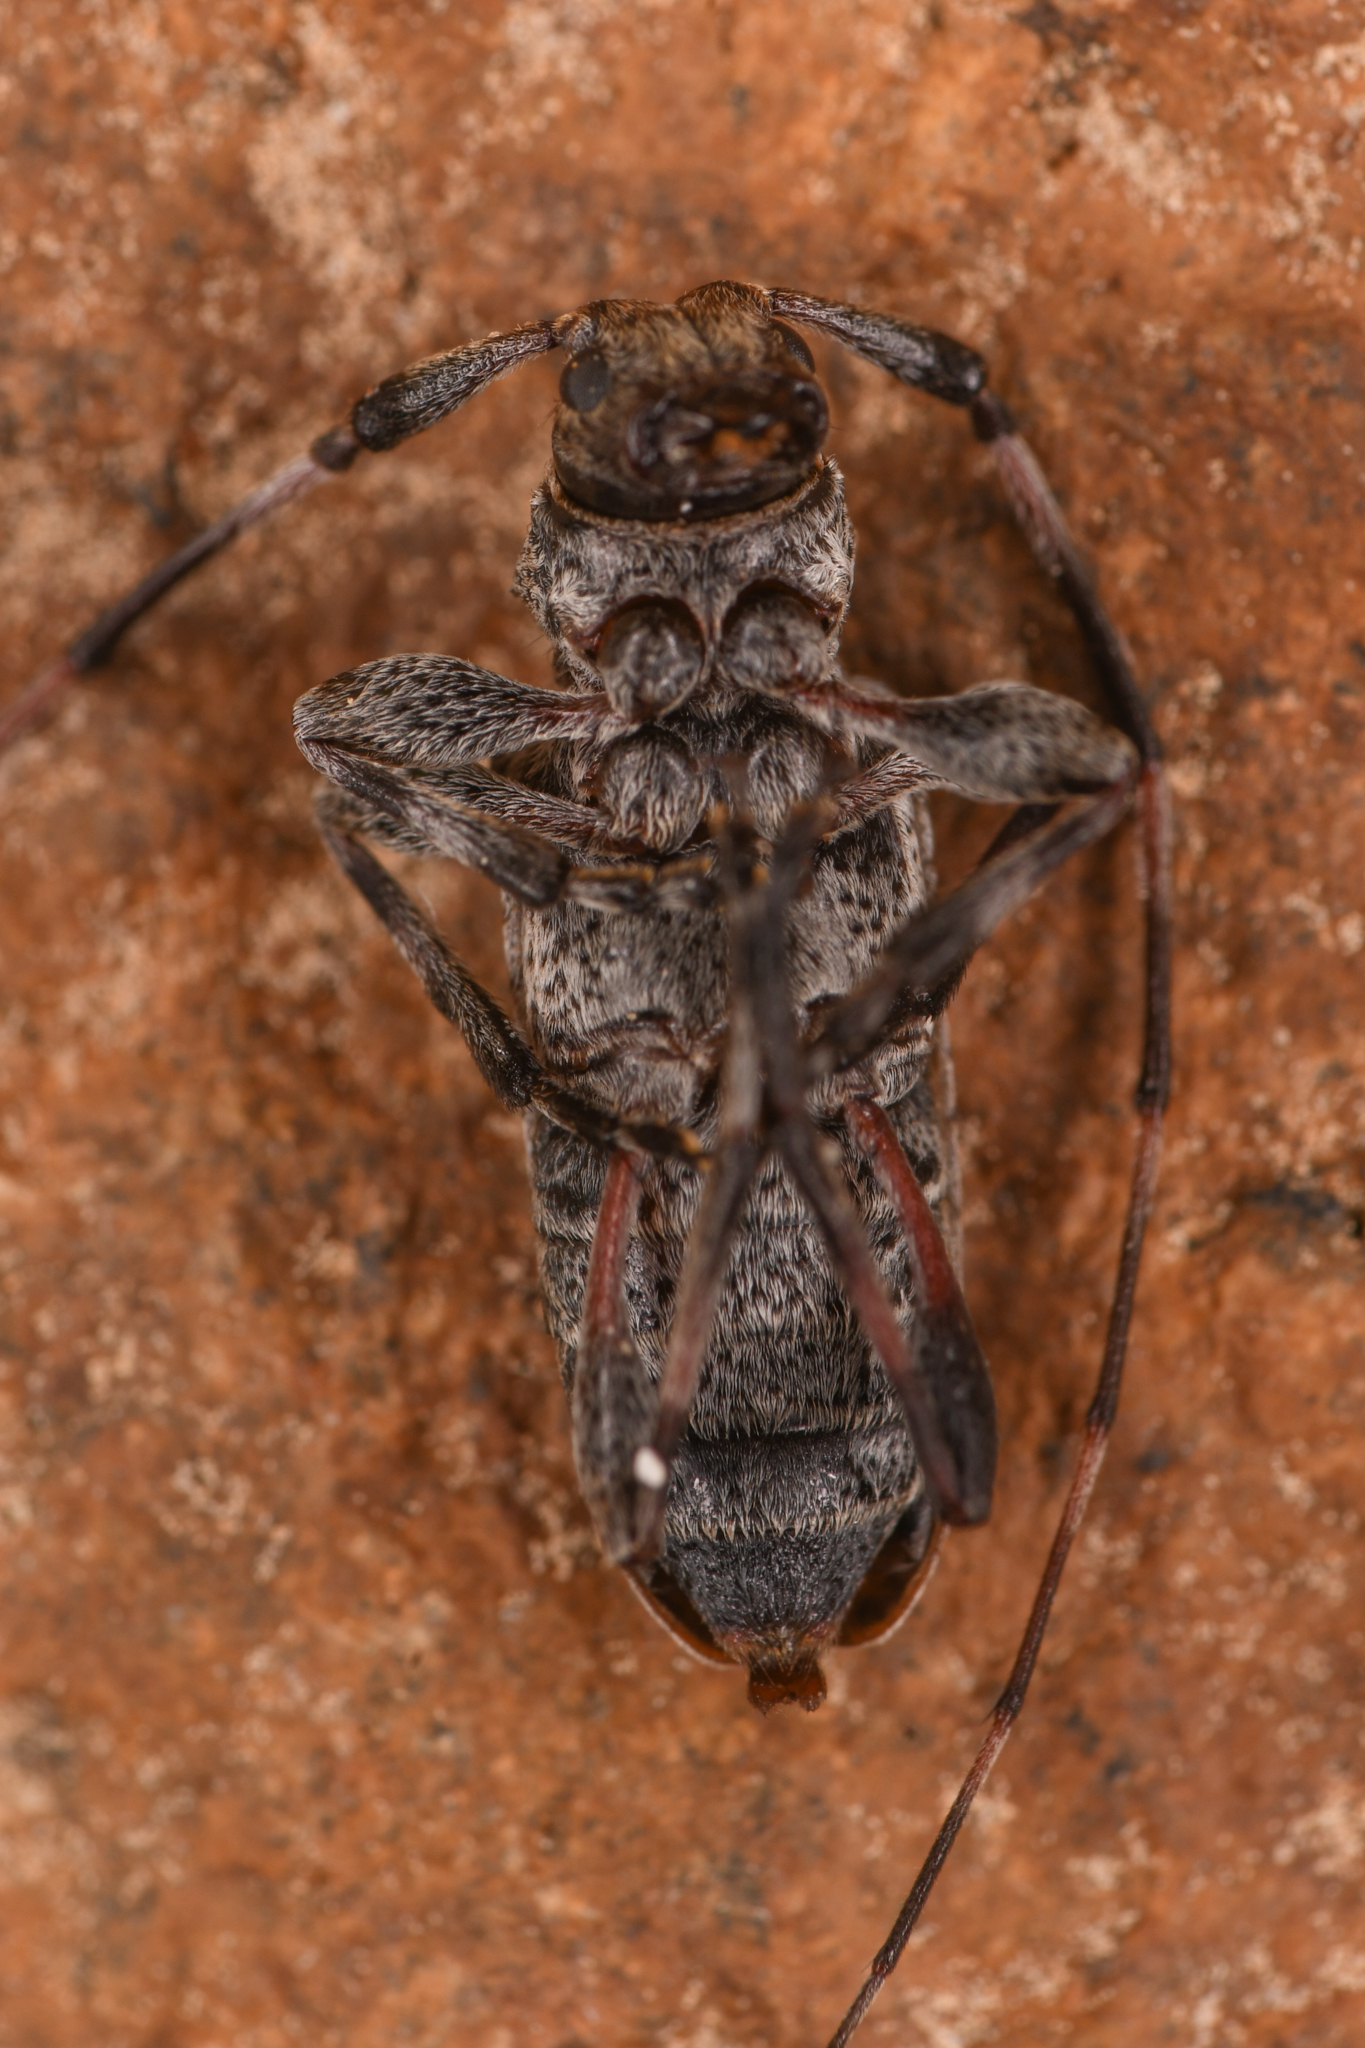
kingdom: Animalia
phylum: Arthropoda
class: Insecta
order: Coleoptera
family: Cerambycidae
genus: Acanthocinus
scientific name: Acanthocinus pusillus
